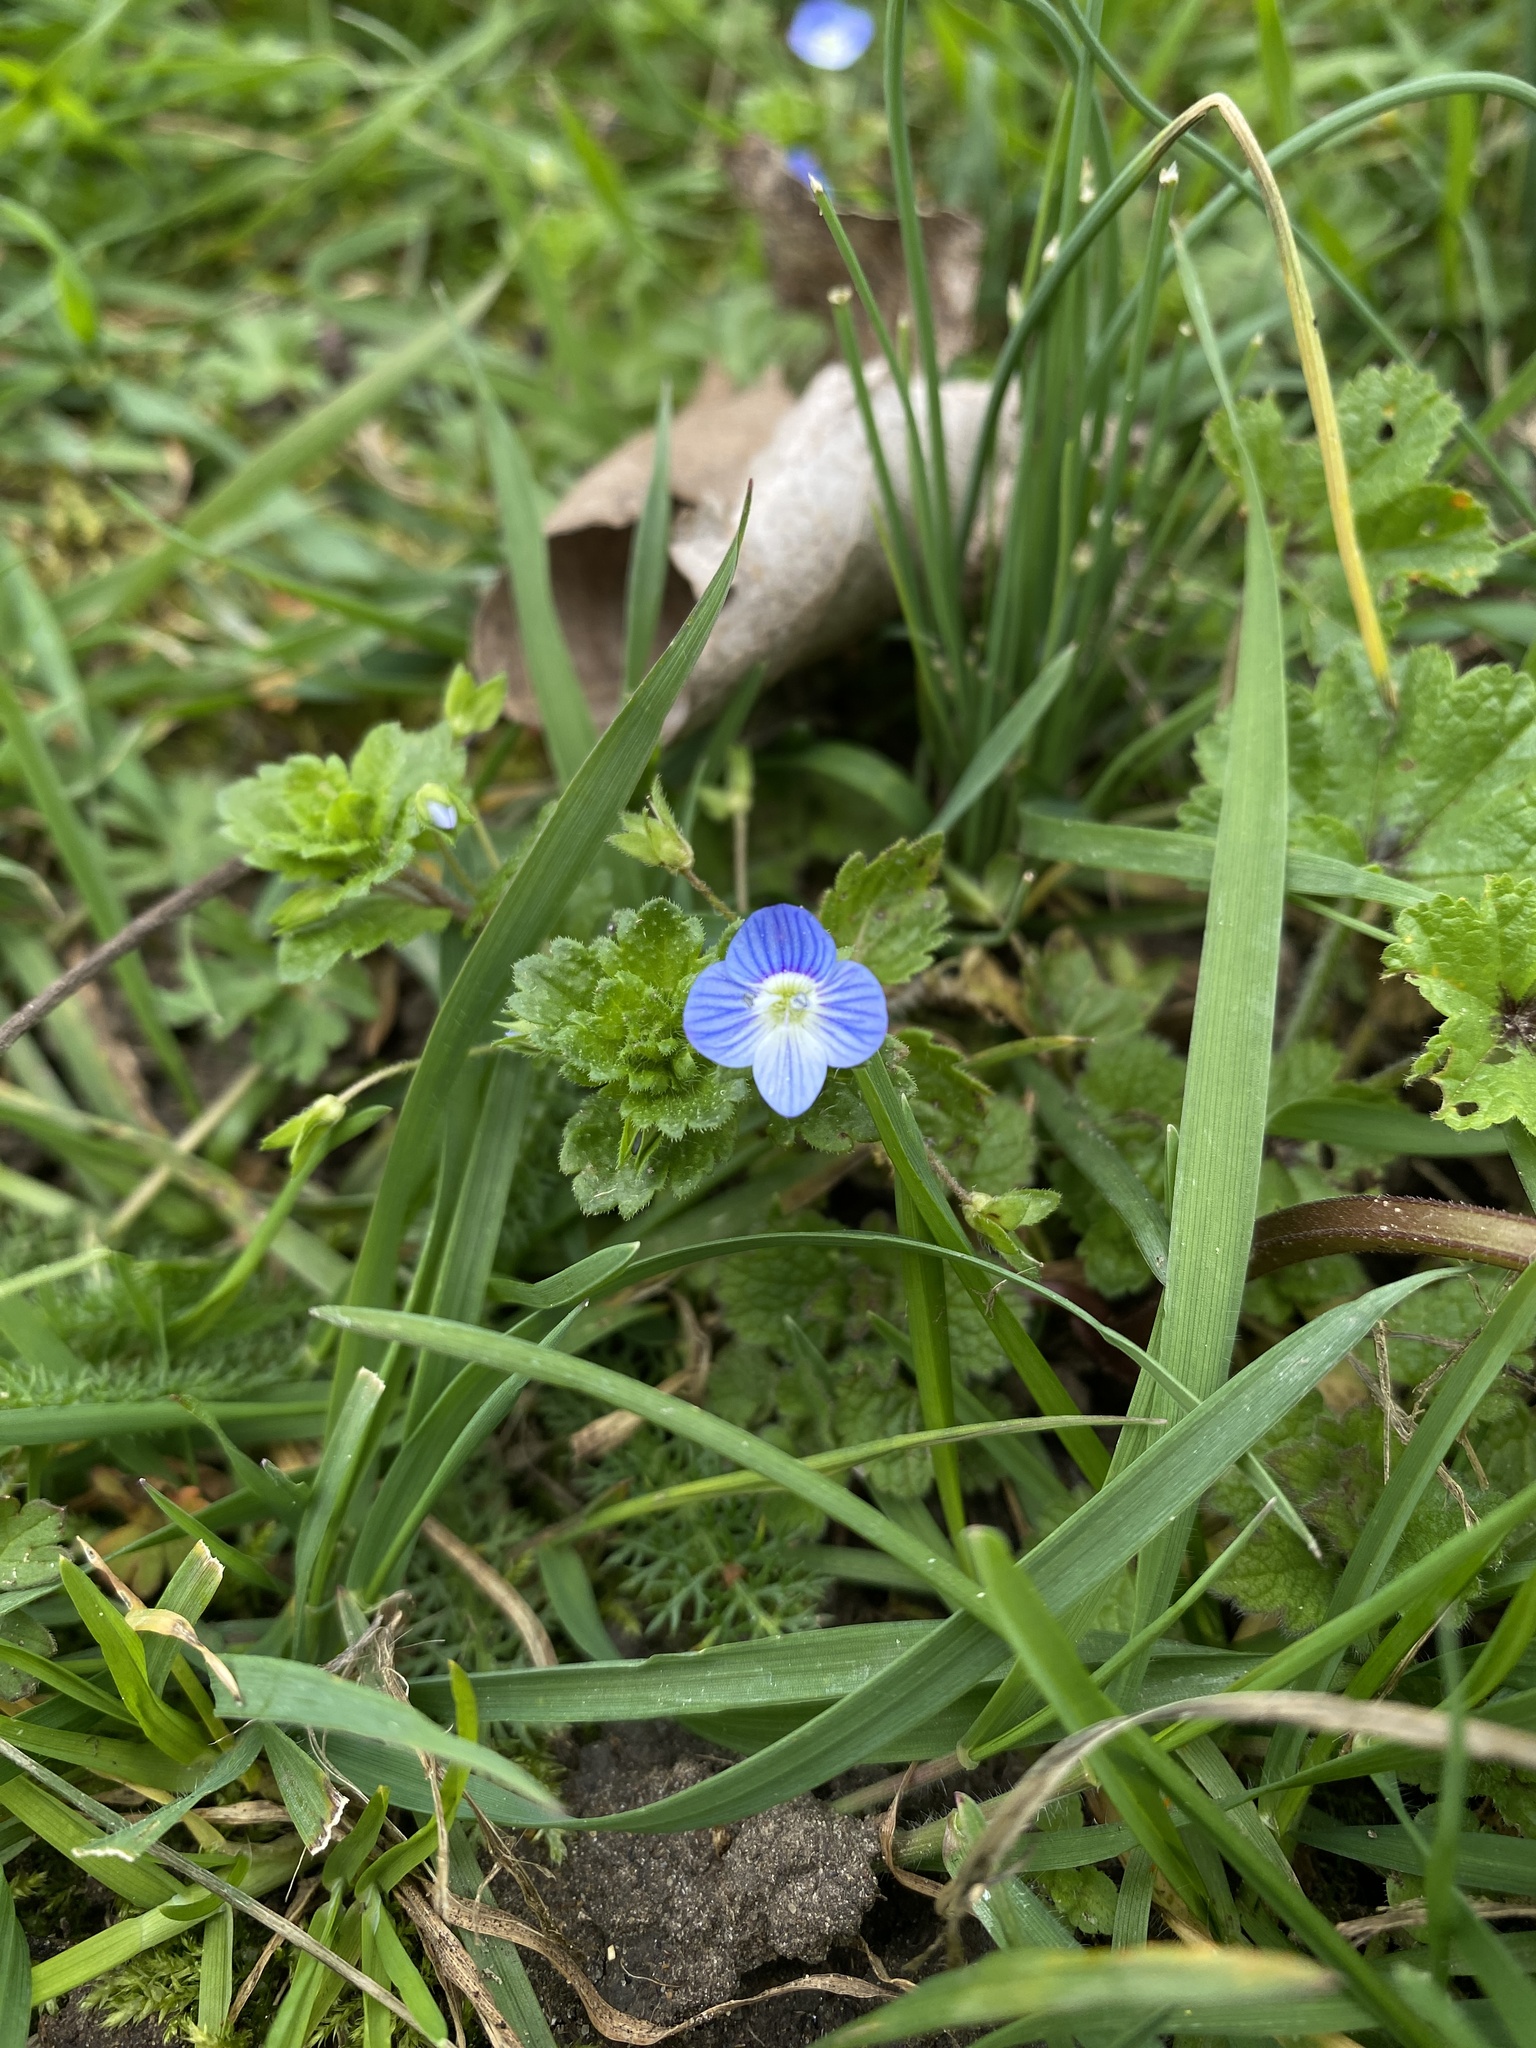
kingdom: Plantae
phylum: Tracheophyta
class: Magnoliopsida
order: Lamiales
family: Plantaginaceae
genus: Veronica
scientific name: Veronica persica
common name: Common field-speedwell
